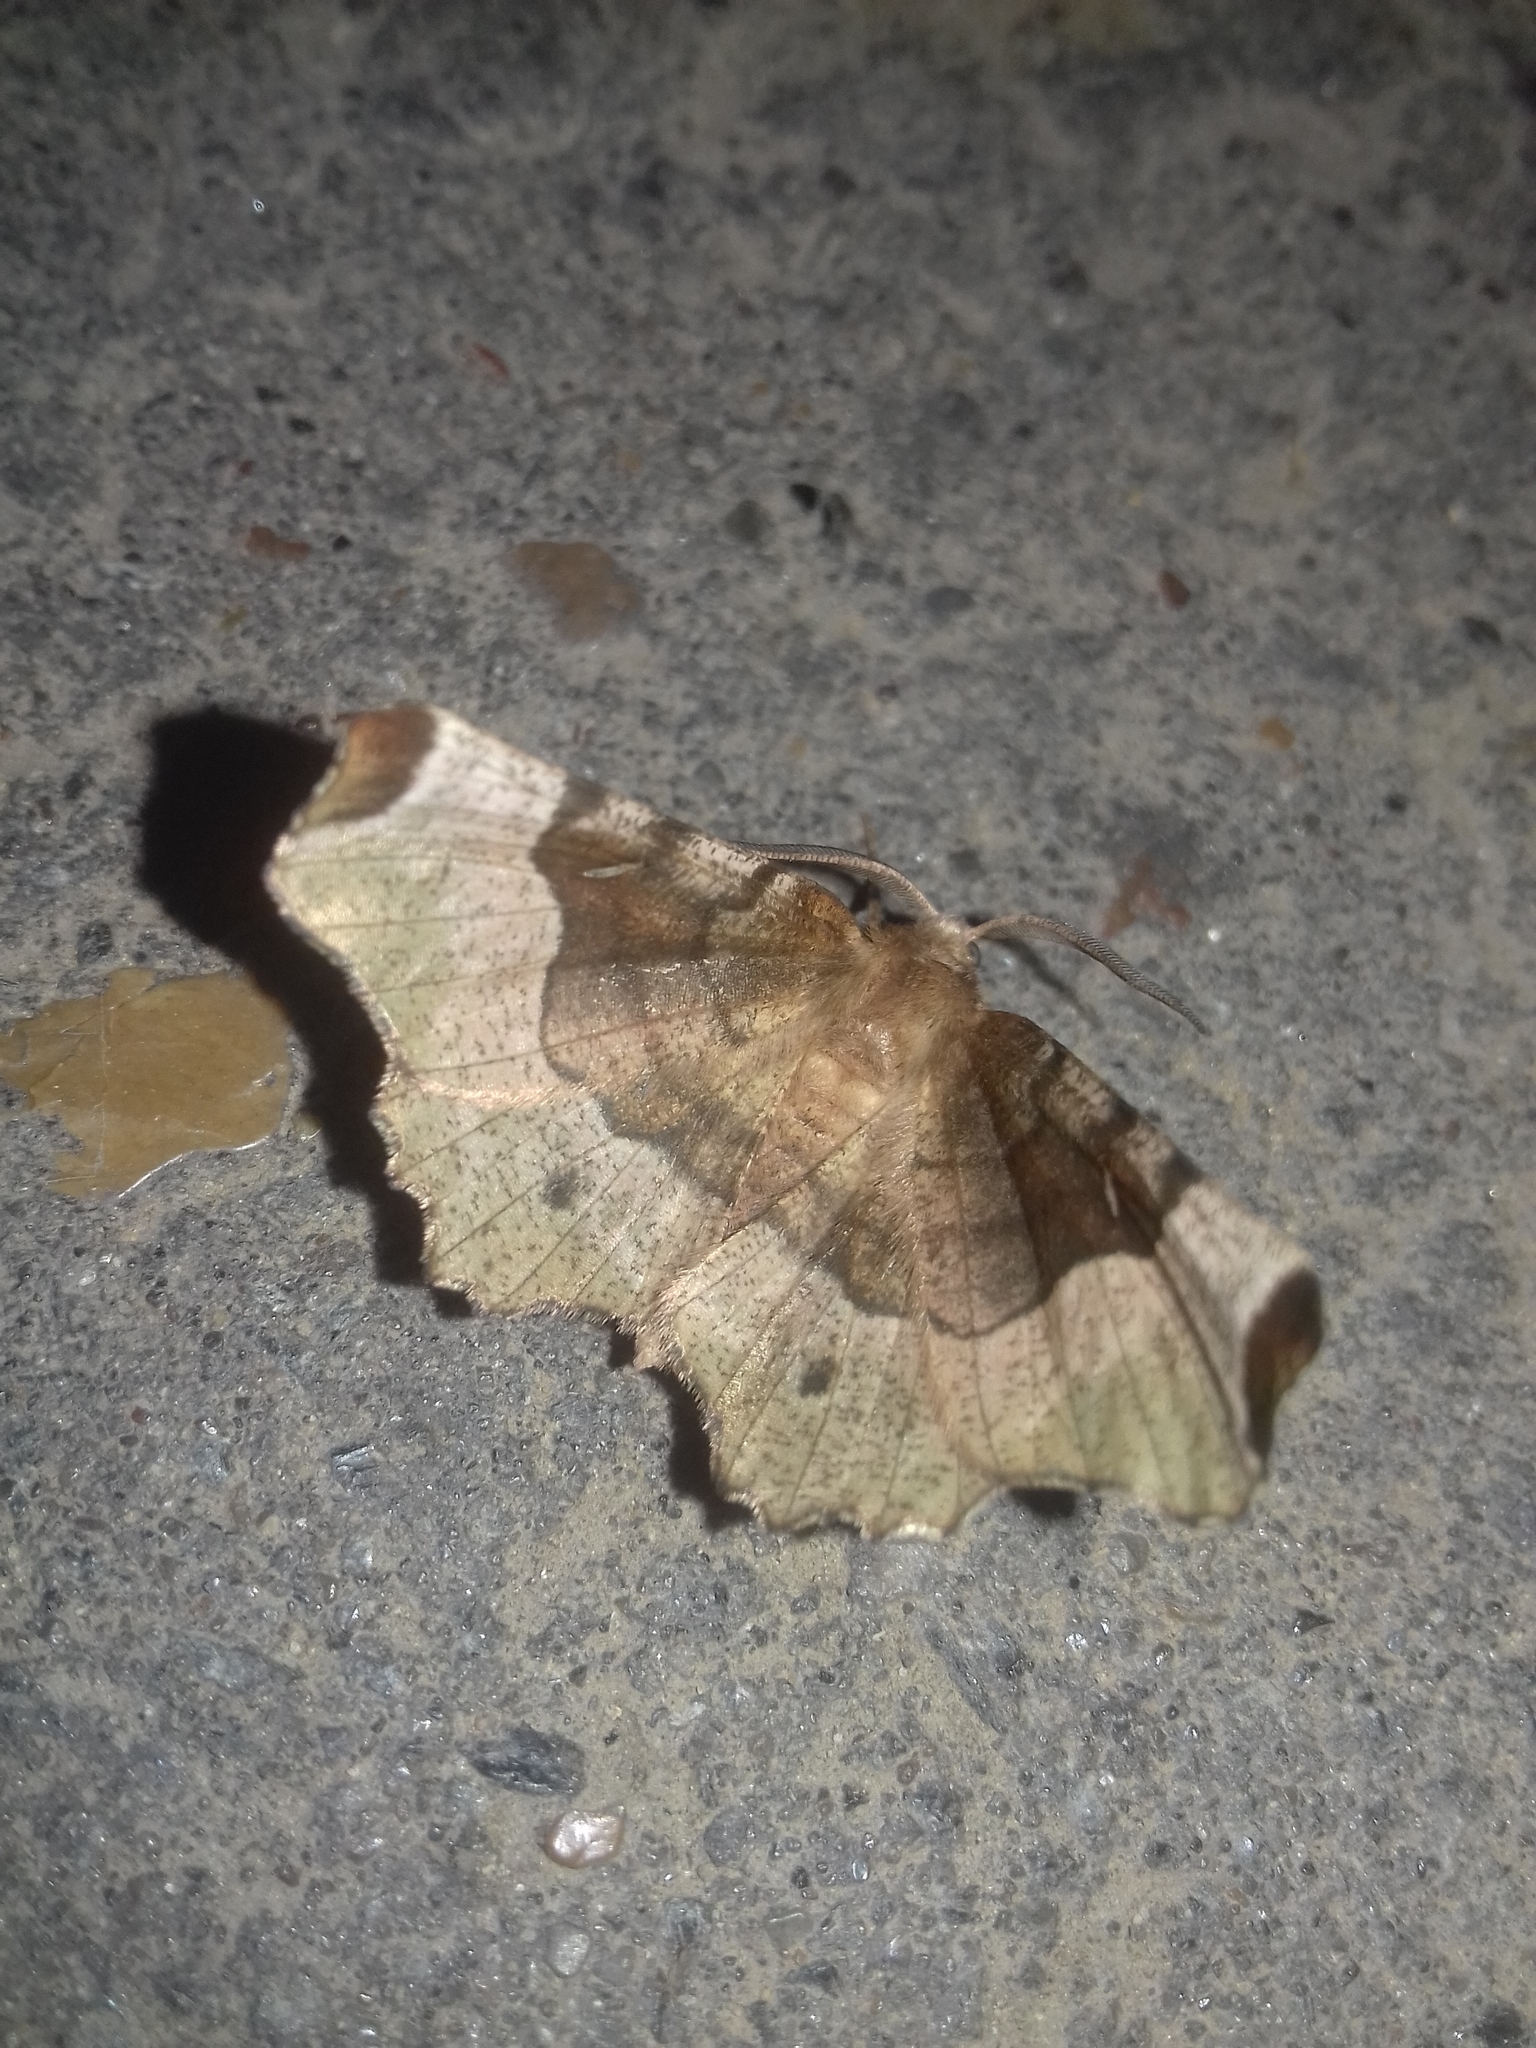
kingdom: Animalia
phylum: Arthropoda
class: Insecta
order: Lepidoptera
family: Geometridae
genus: Selenia
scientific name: Selenia tetralunaria
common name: Purple thorn
